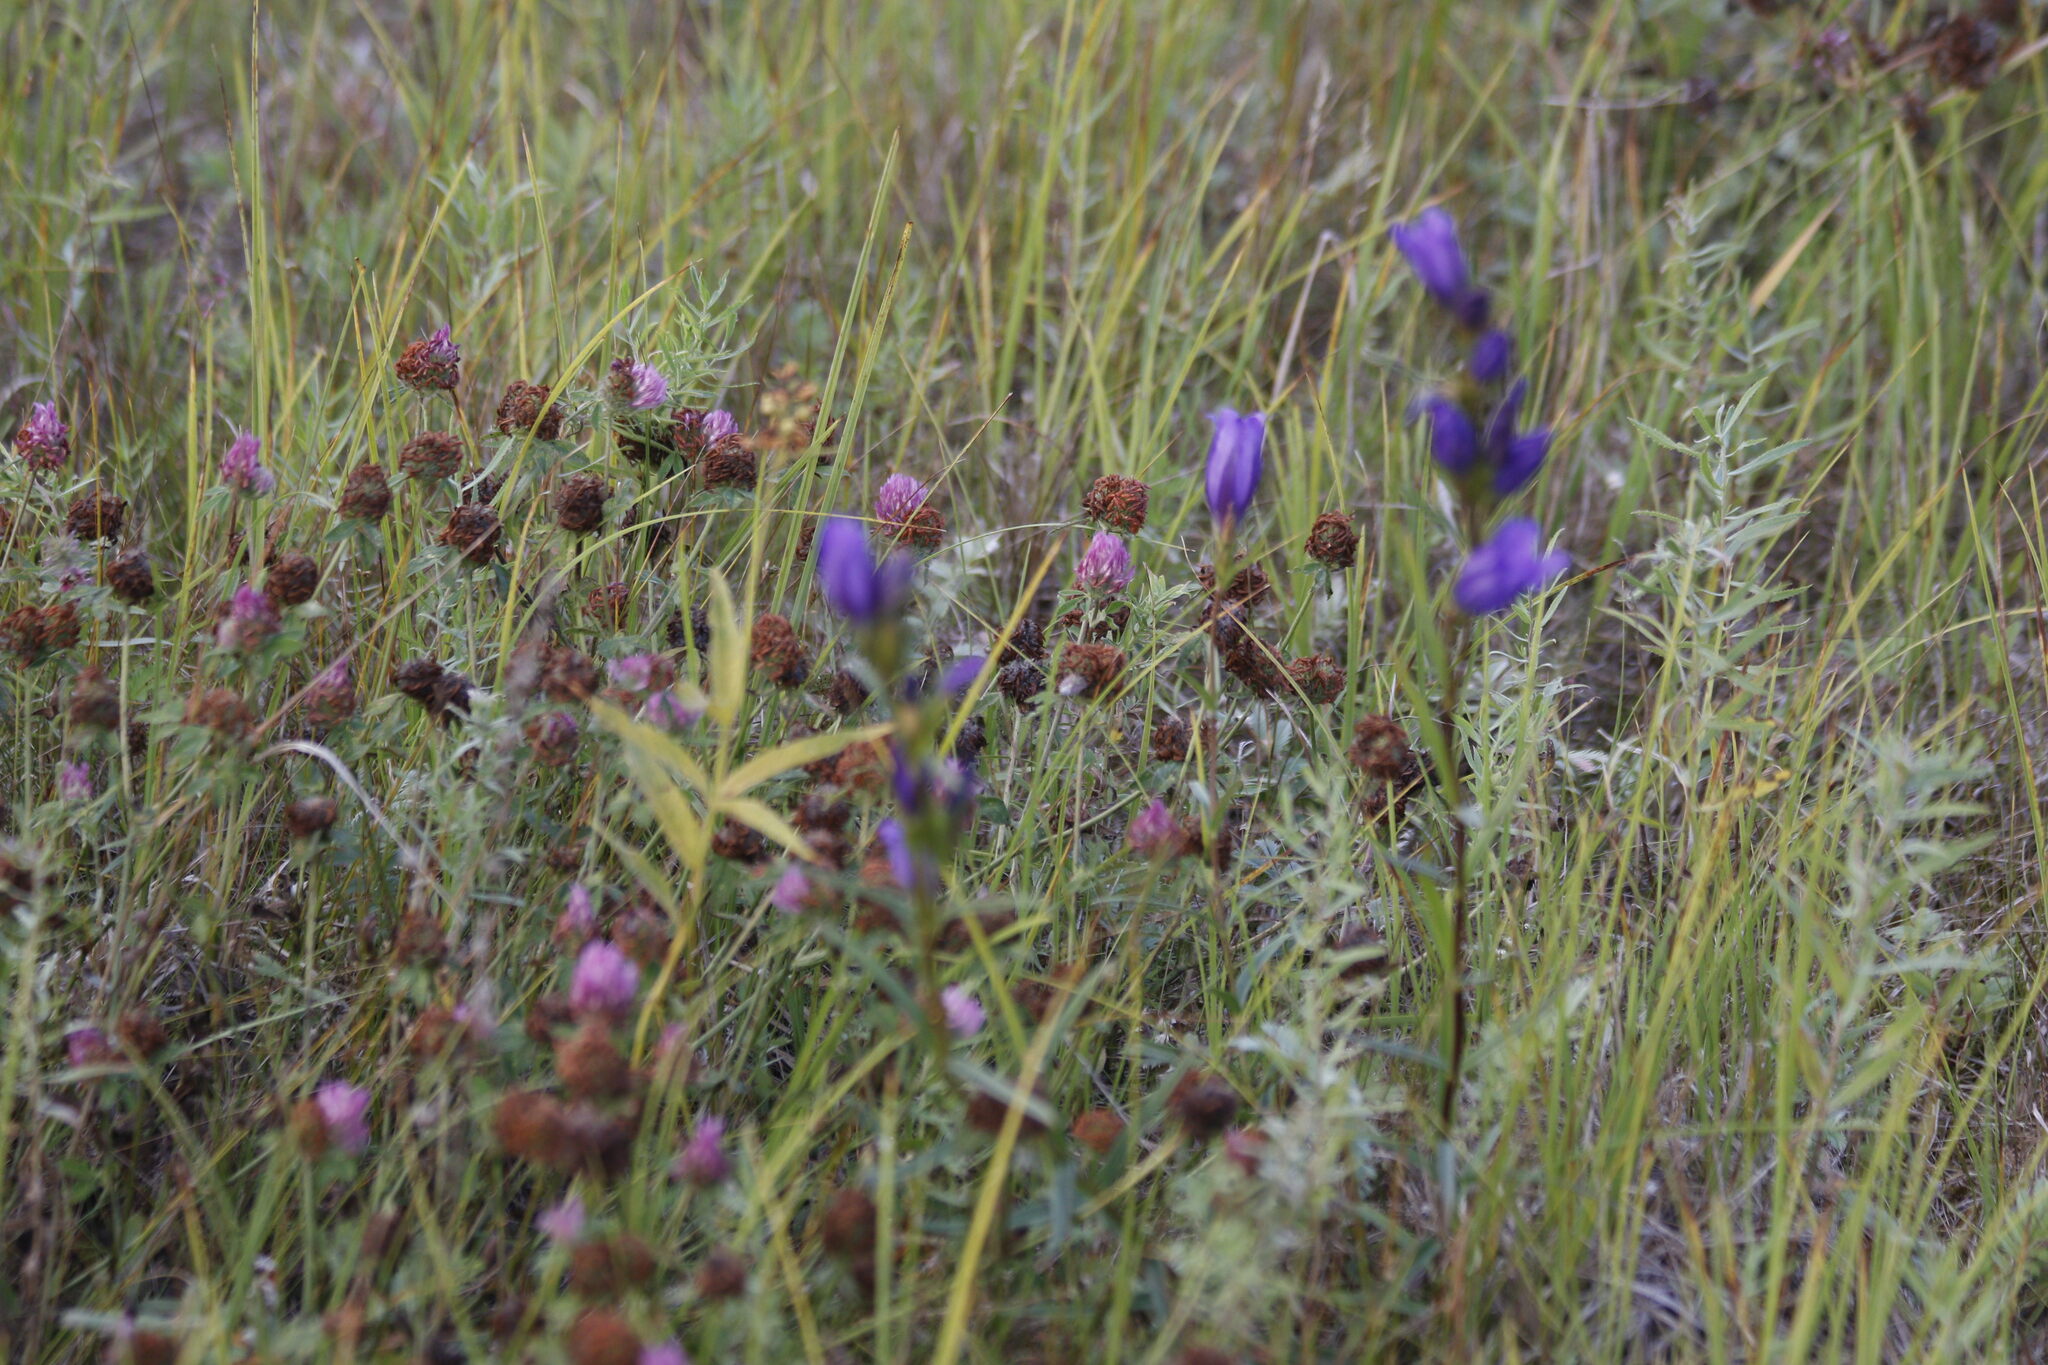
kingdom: Plantae
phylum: Tracheophyta
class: Magnoliopsida
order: Fabales
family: Fabaceae
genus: Trifolium
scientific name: Trifolium pratense
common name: Red clover
